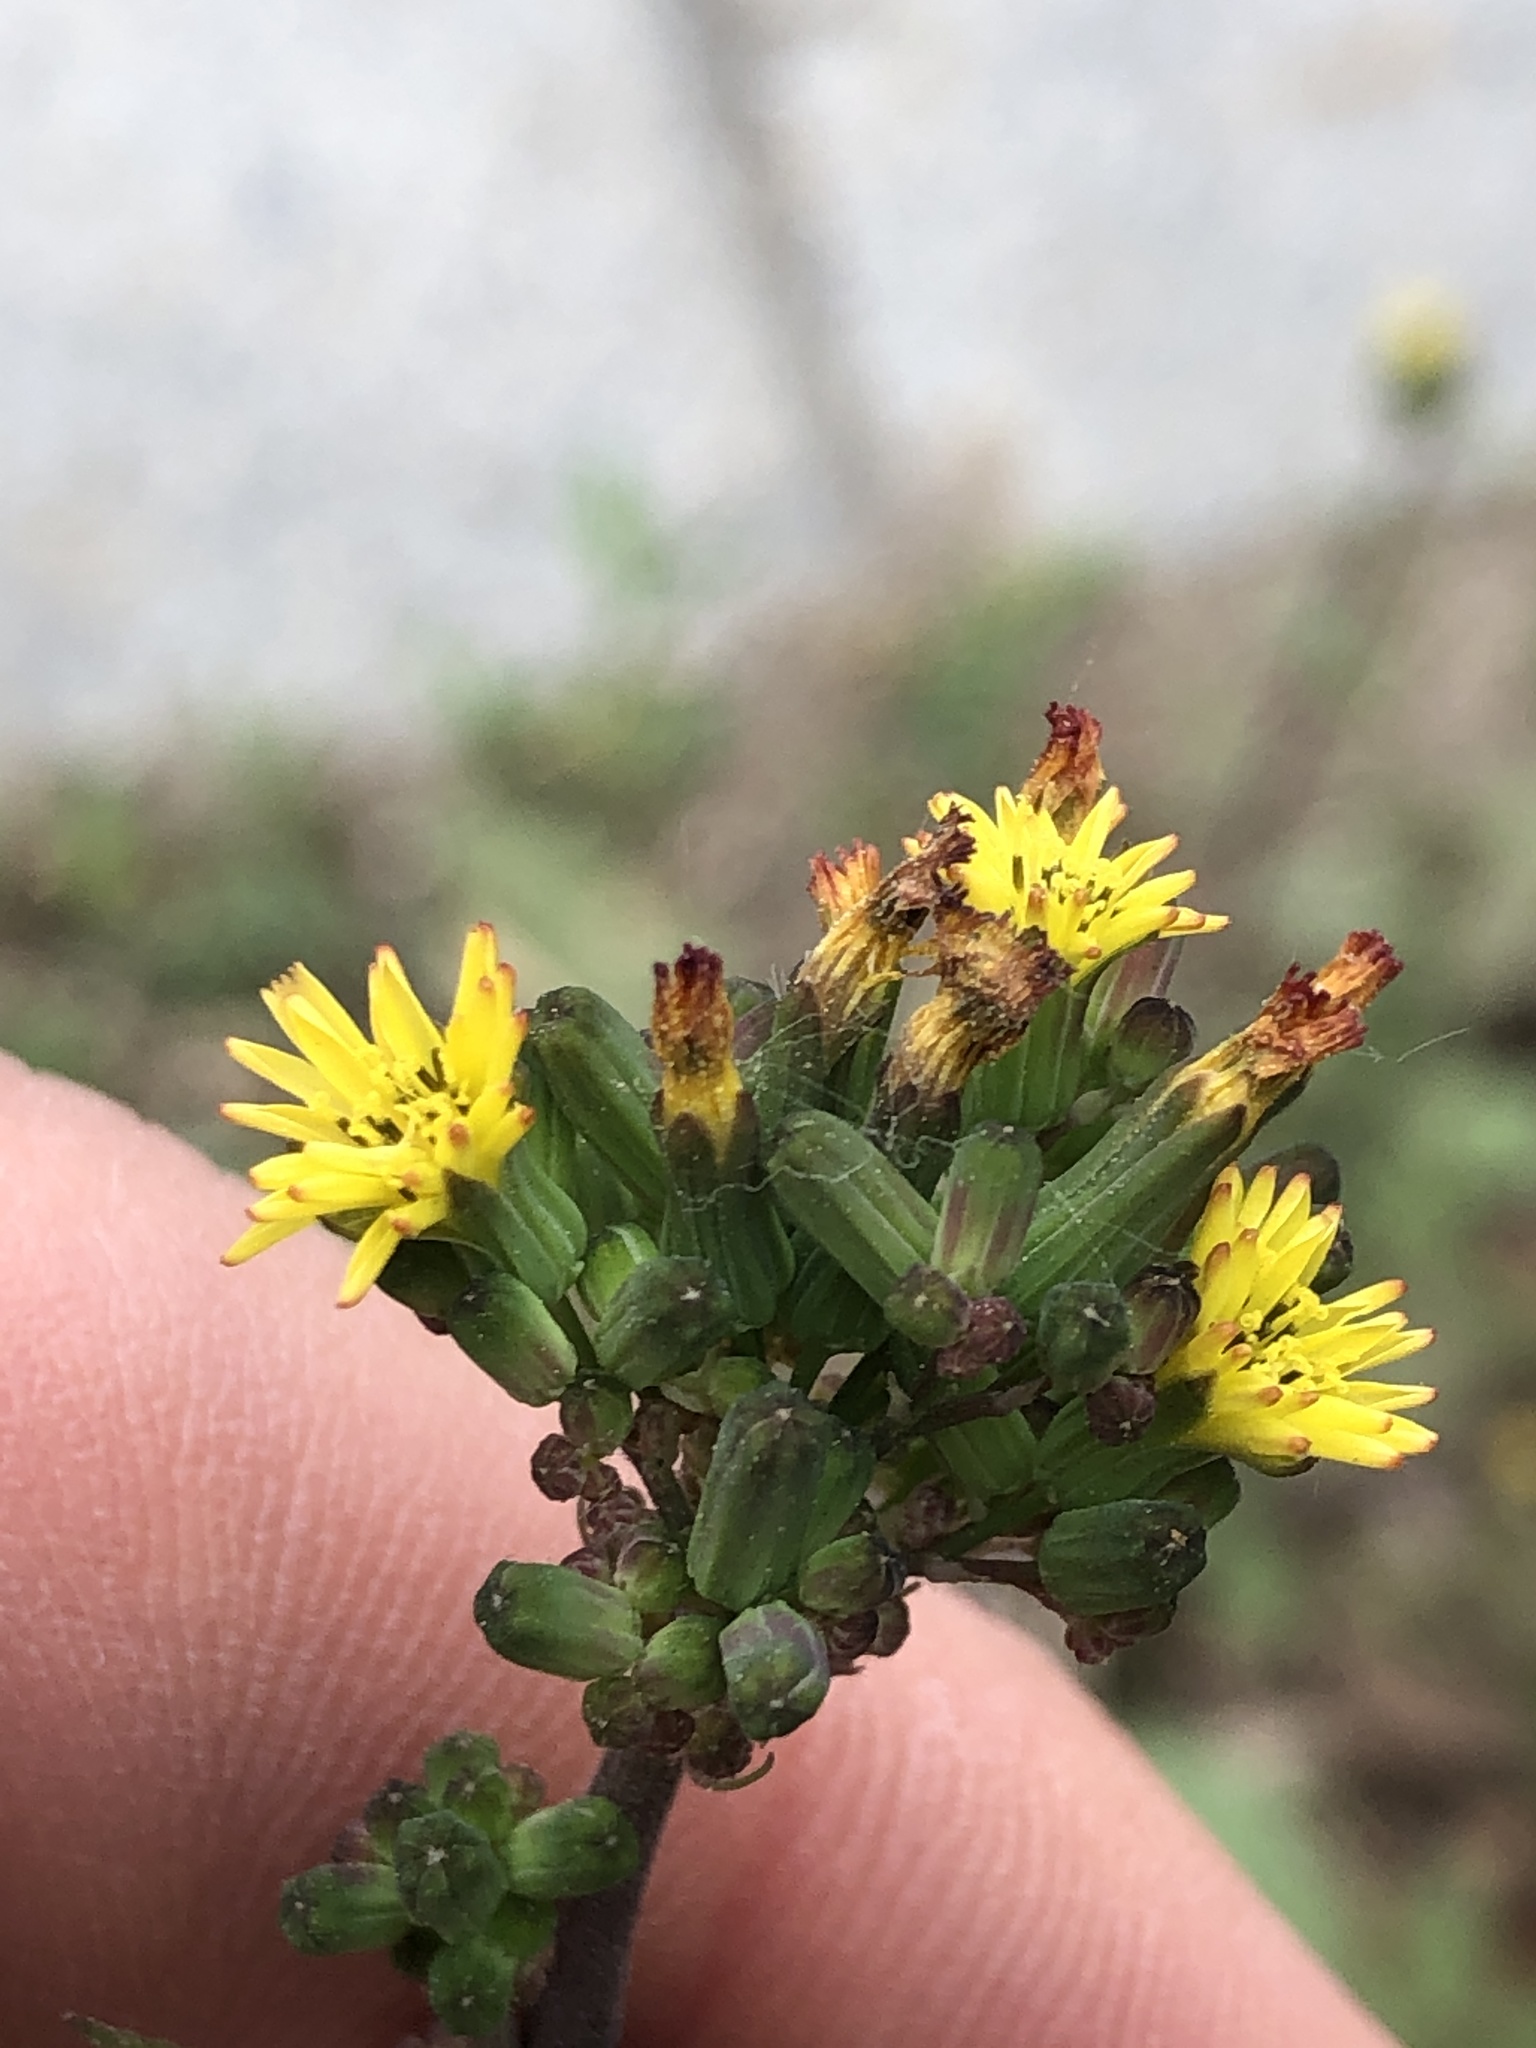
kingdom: Plantae
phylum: Tracheophyta
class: Magnoliopsida
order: Asterales
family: Asteraceae
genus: Youngia
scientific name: Youngia japonica
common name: Oriental false hawksbeard
